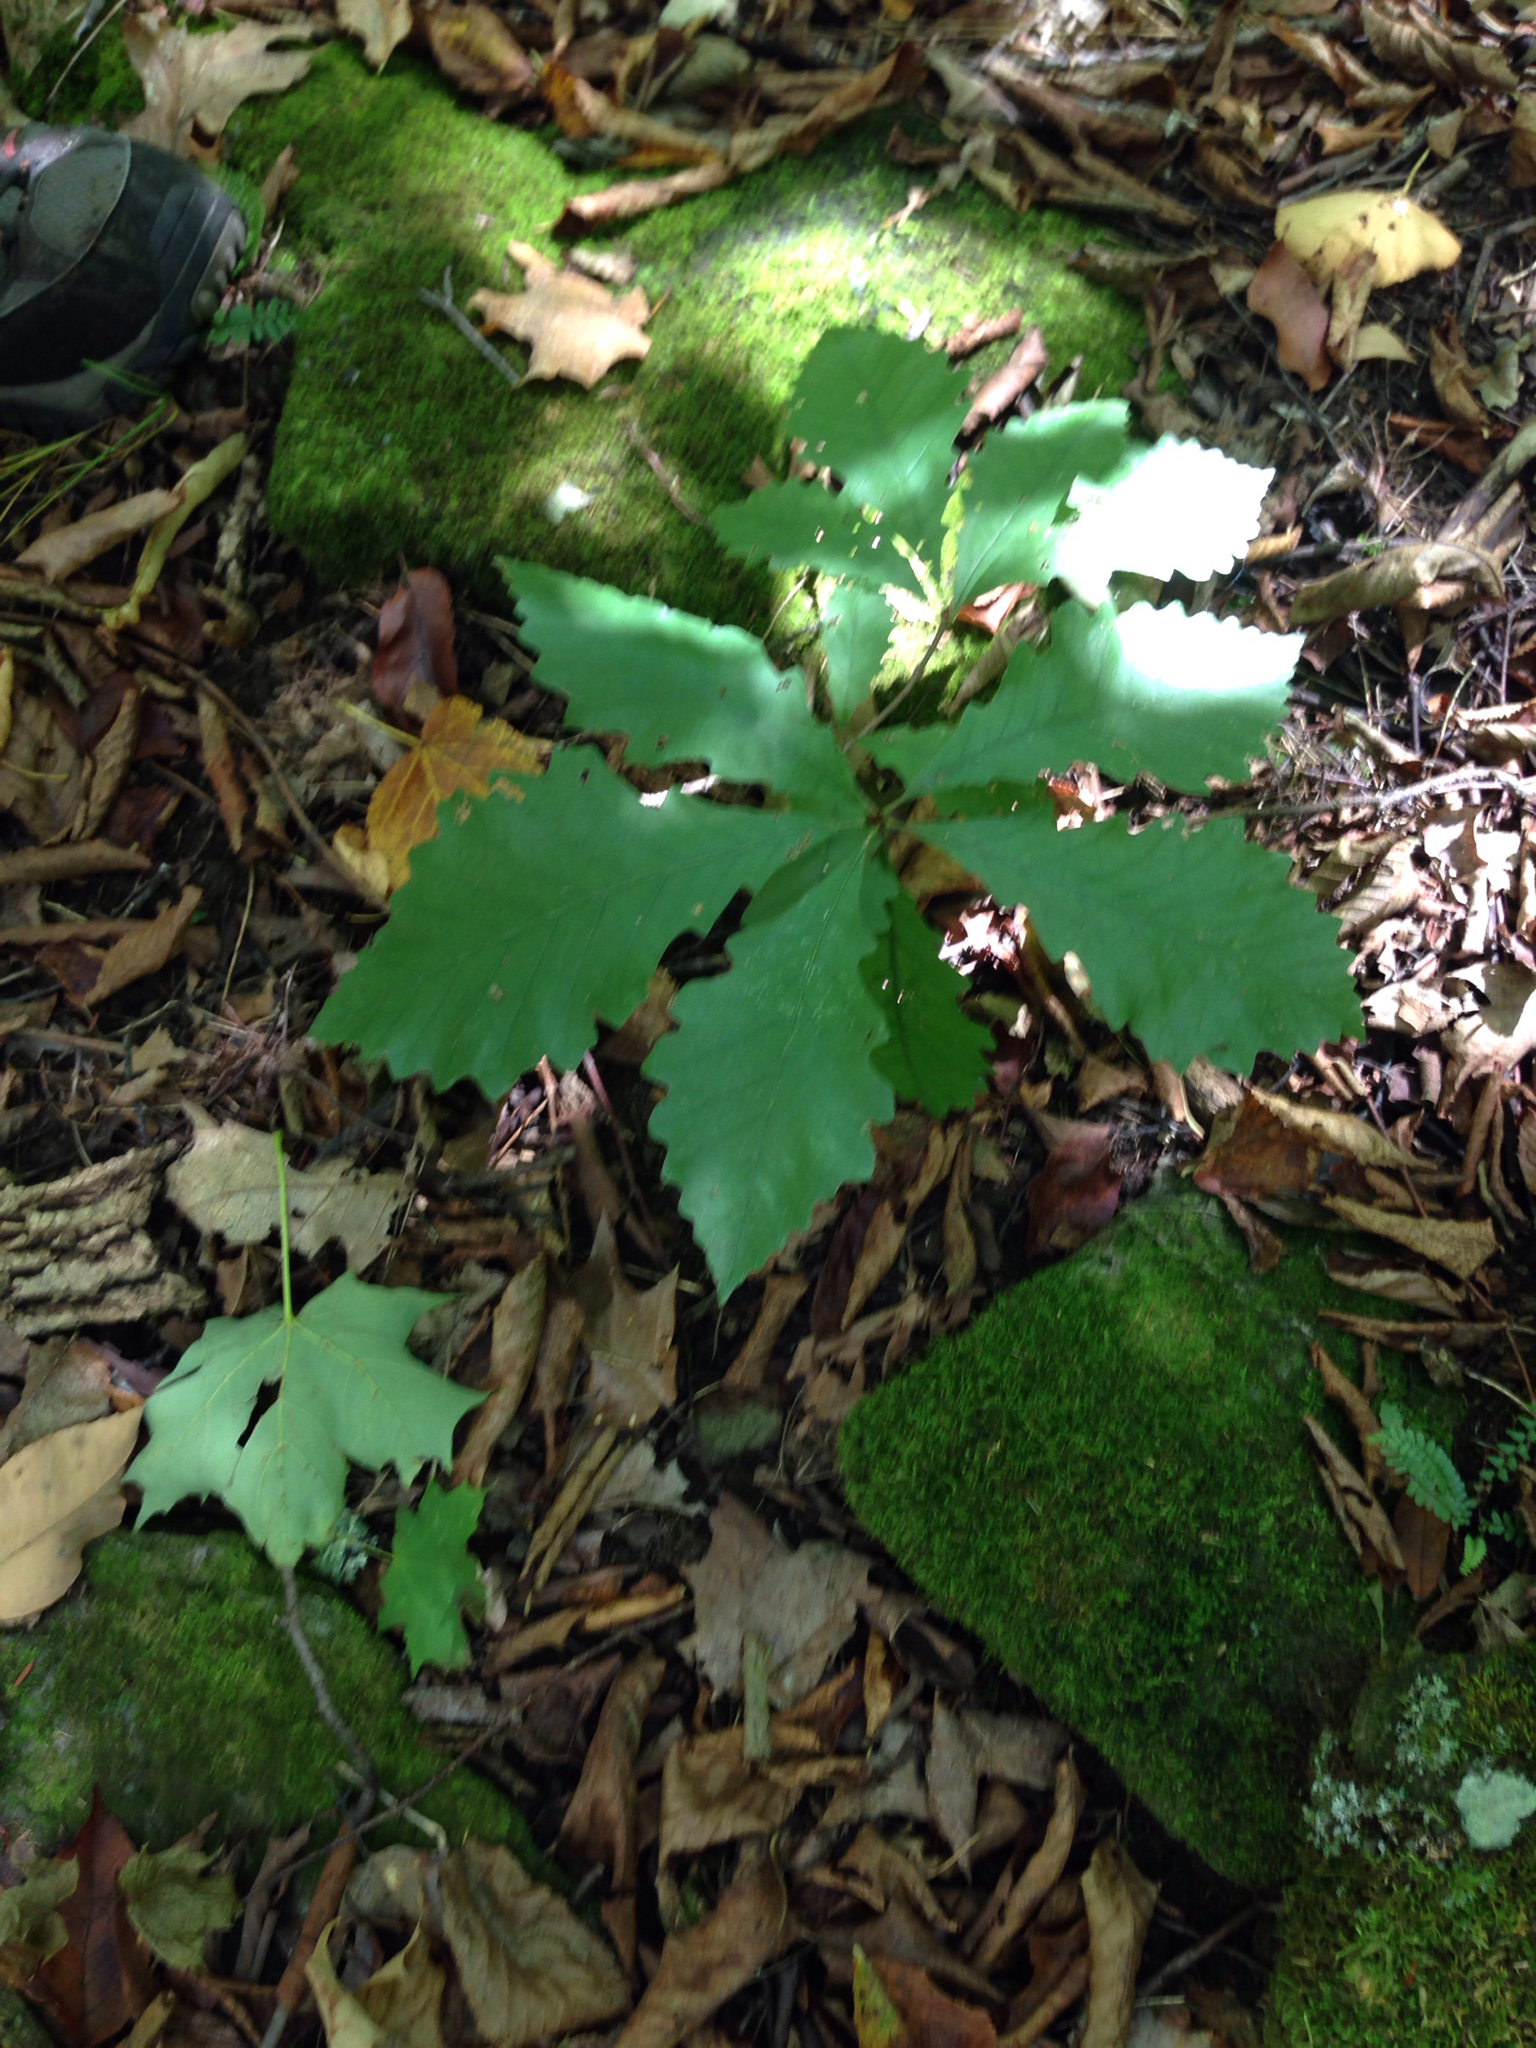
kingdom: Plantae
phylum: Tracheophyta
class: Magnoliopsida
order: Fagales
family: Fagaceae
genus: Quercus
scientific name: Quercus muehlenbergii
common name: Chinkapin oak
